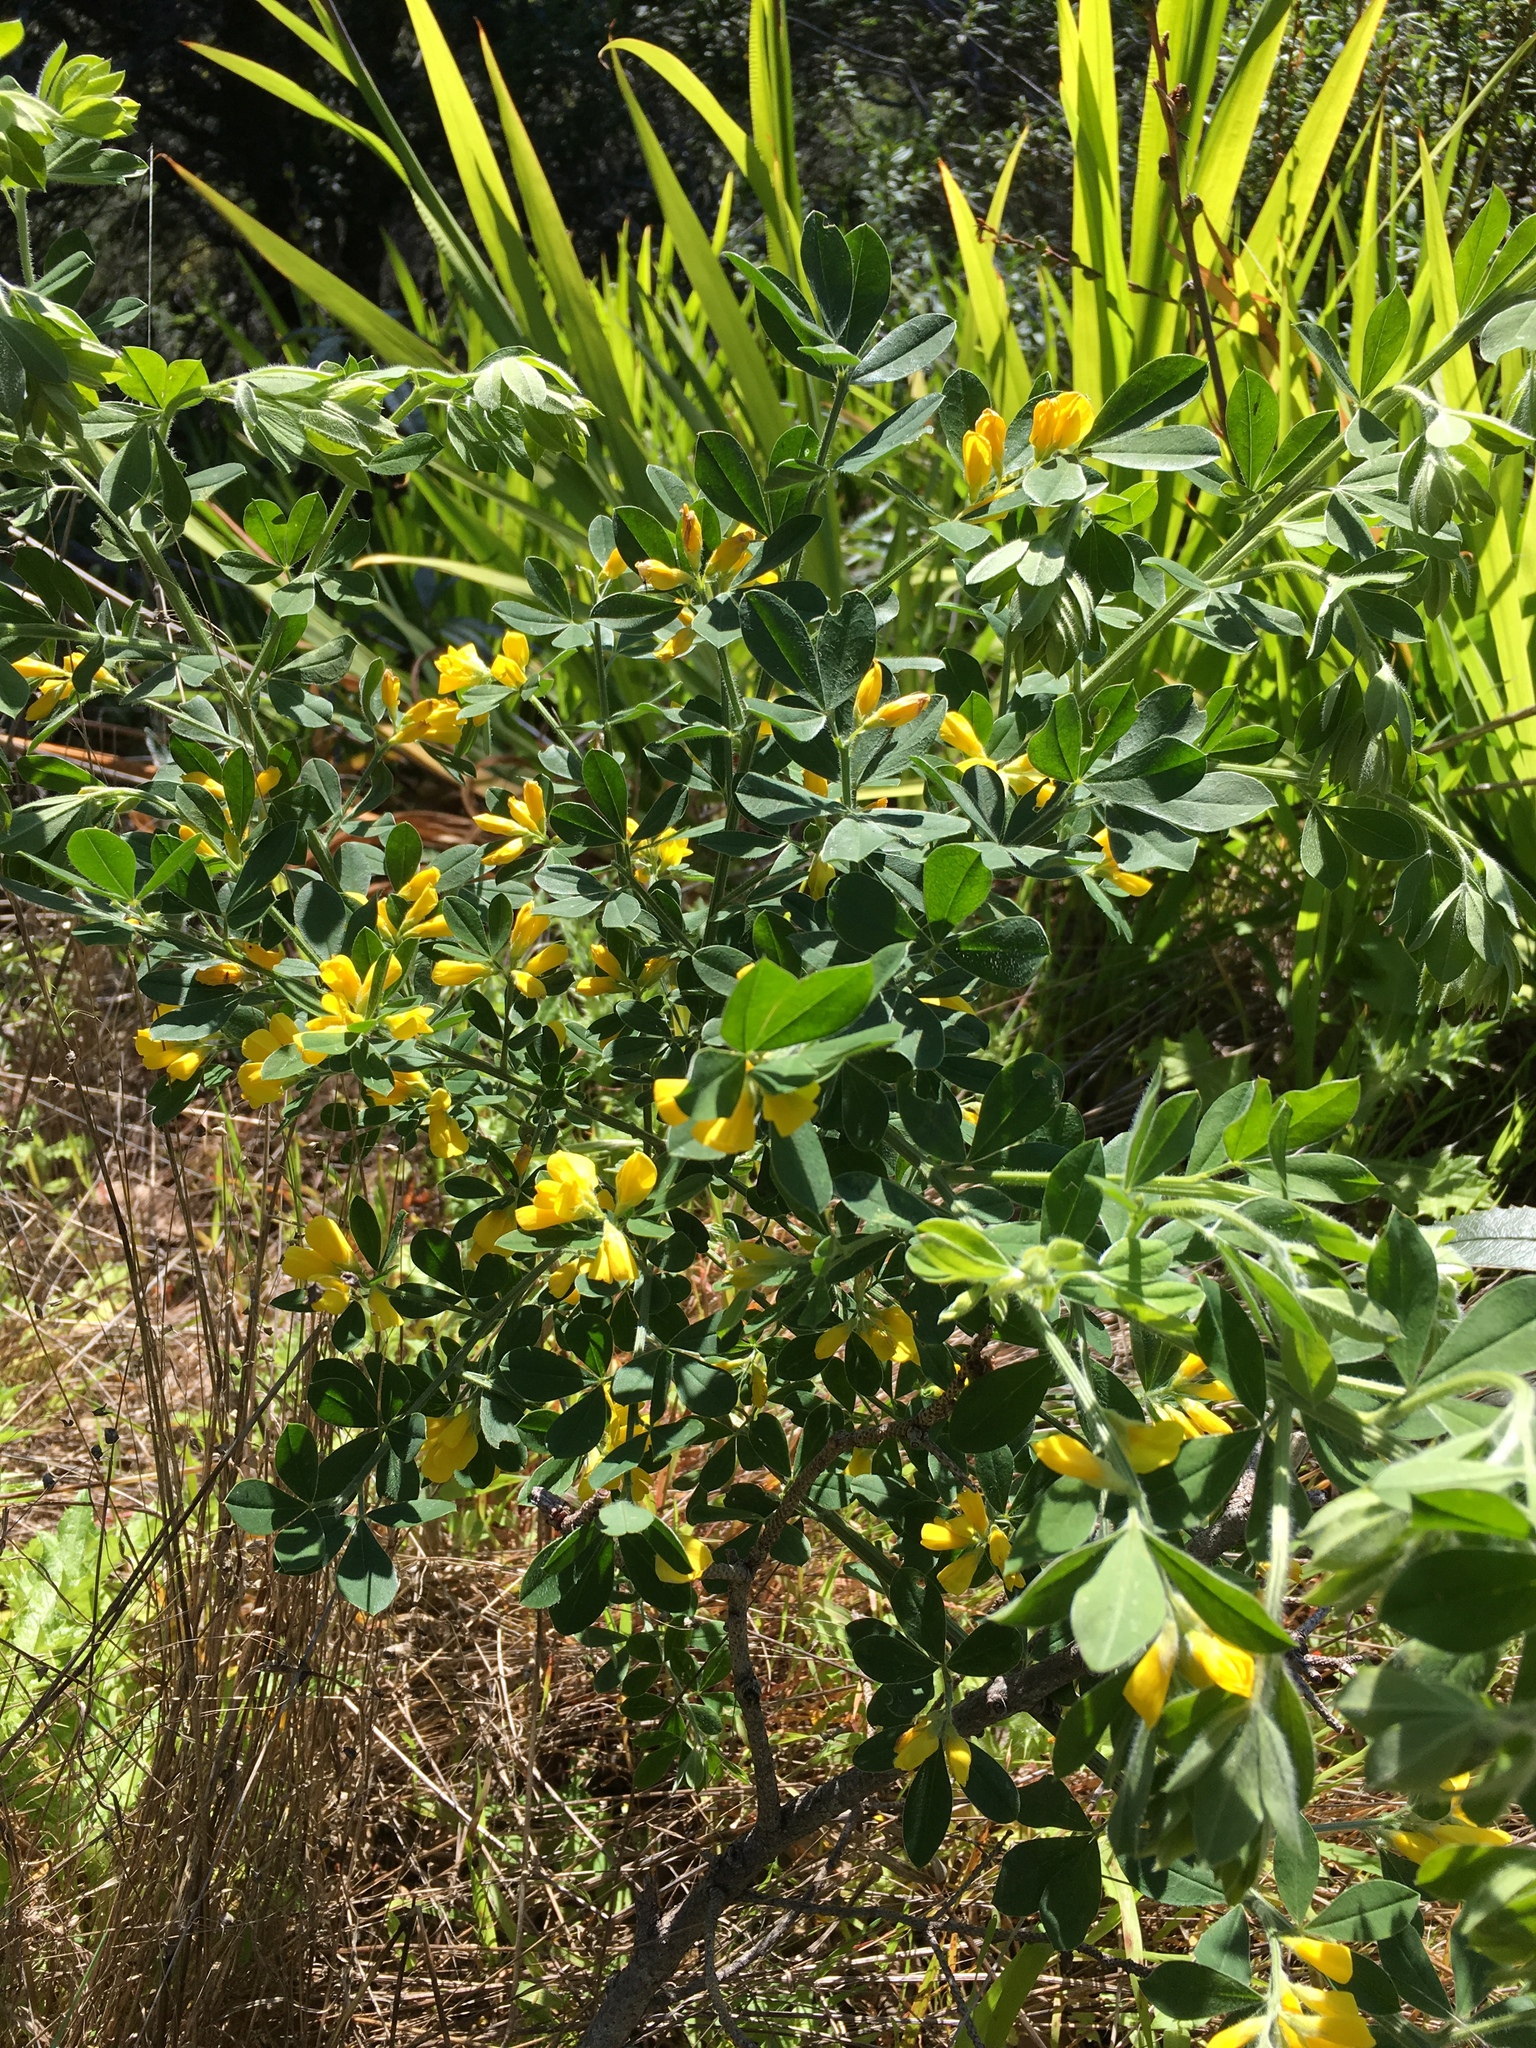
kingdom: Plantae
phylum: Tracheophyta
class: Magnoliopsida
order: Fabales
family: Fabaceae
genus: Genista
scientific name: Genista monspessulana
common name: Montpellier broom
